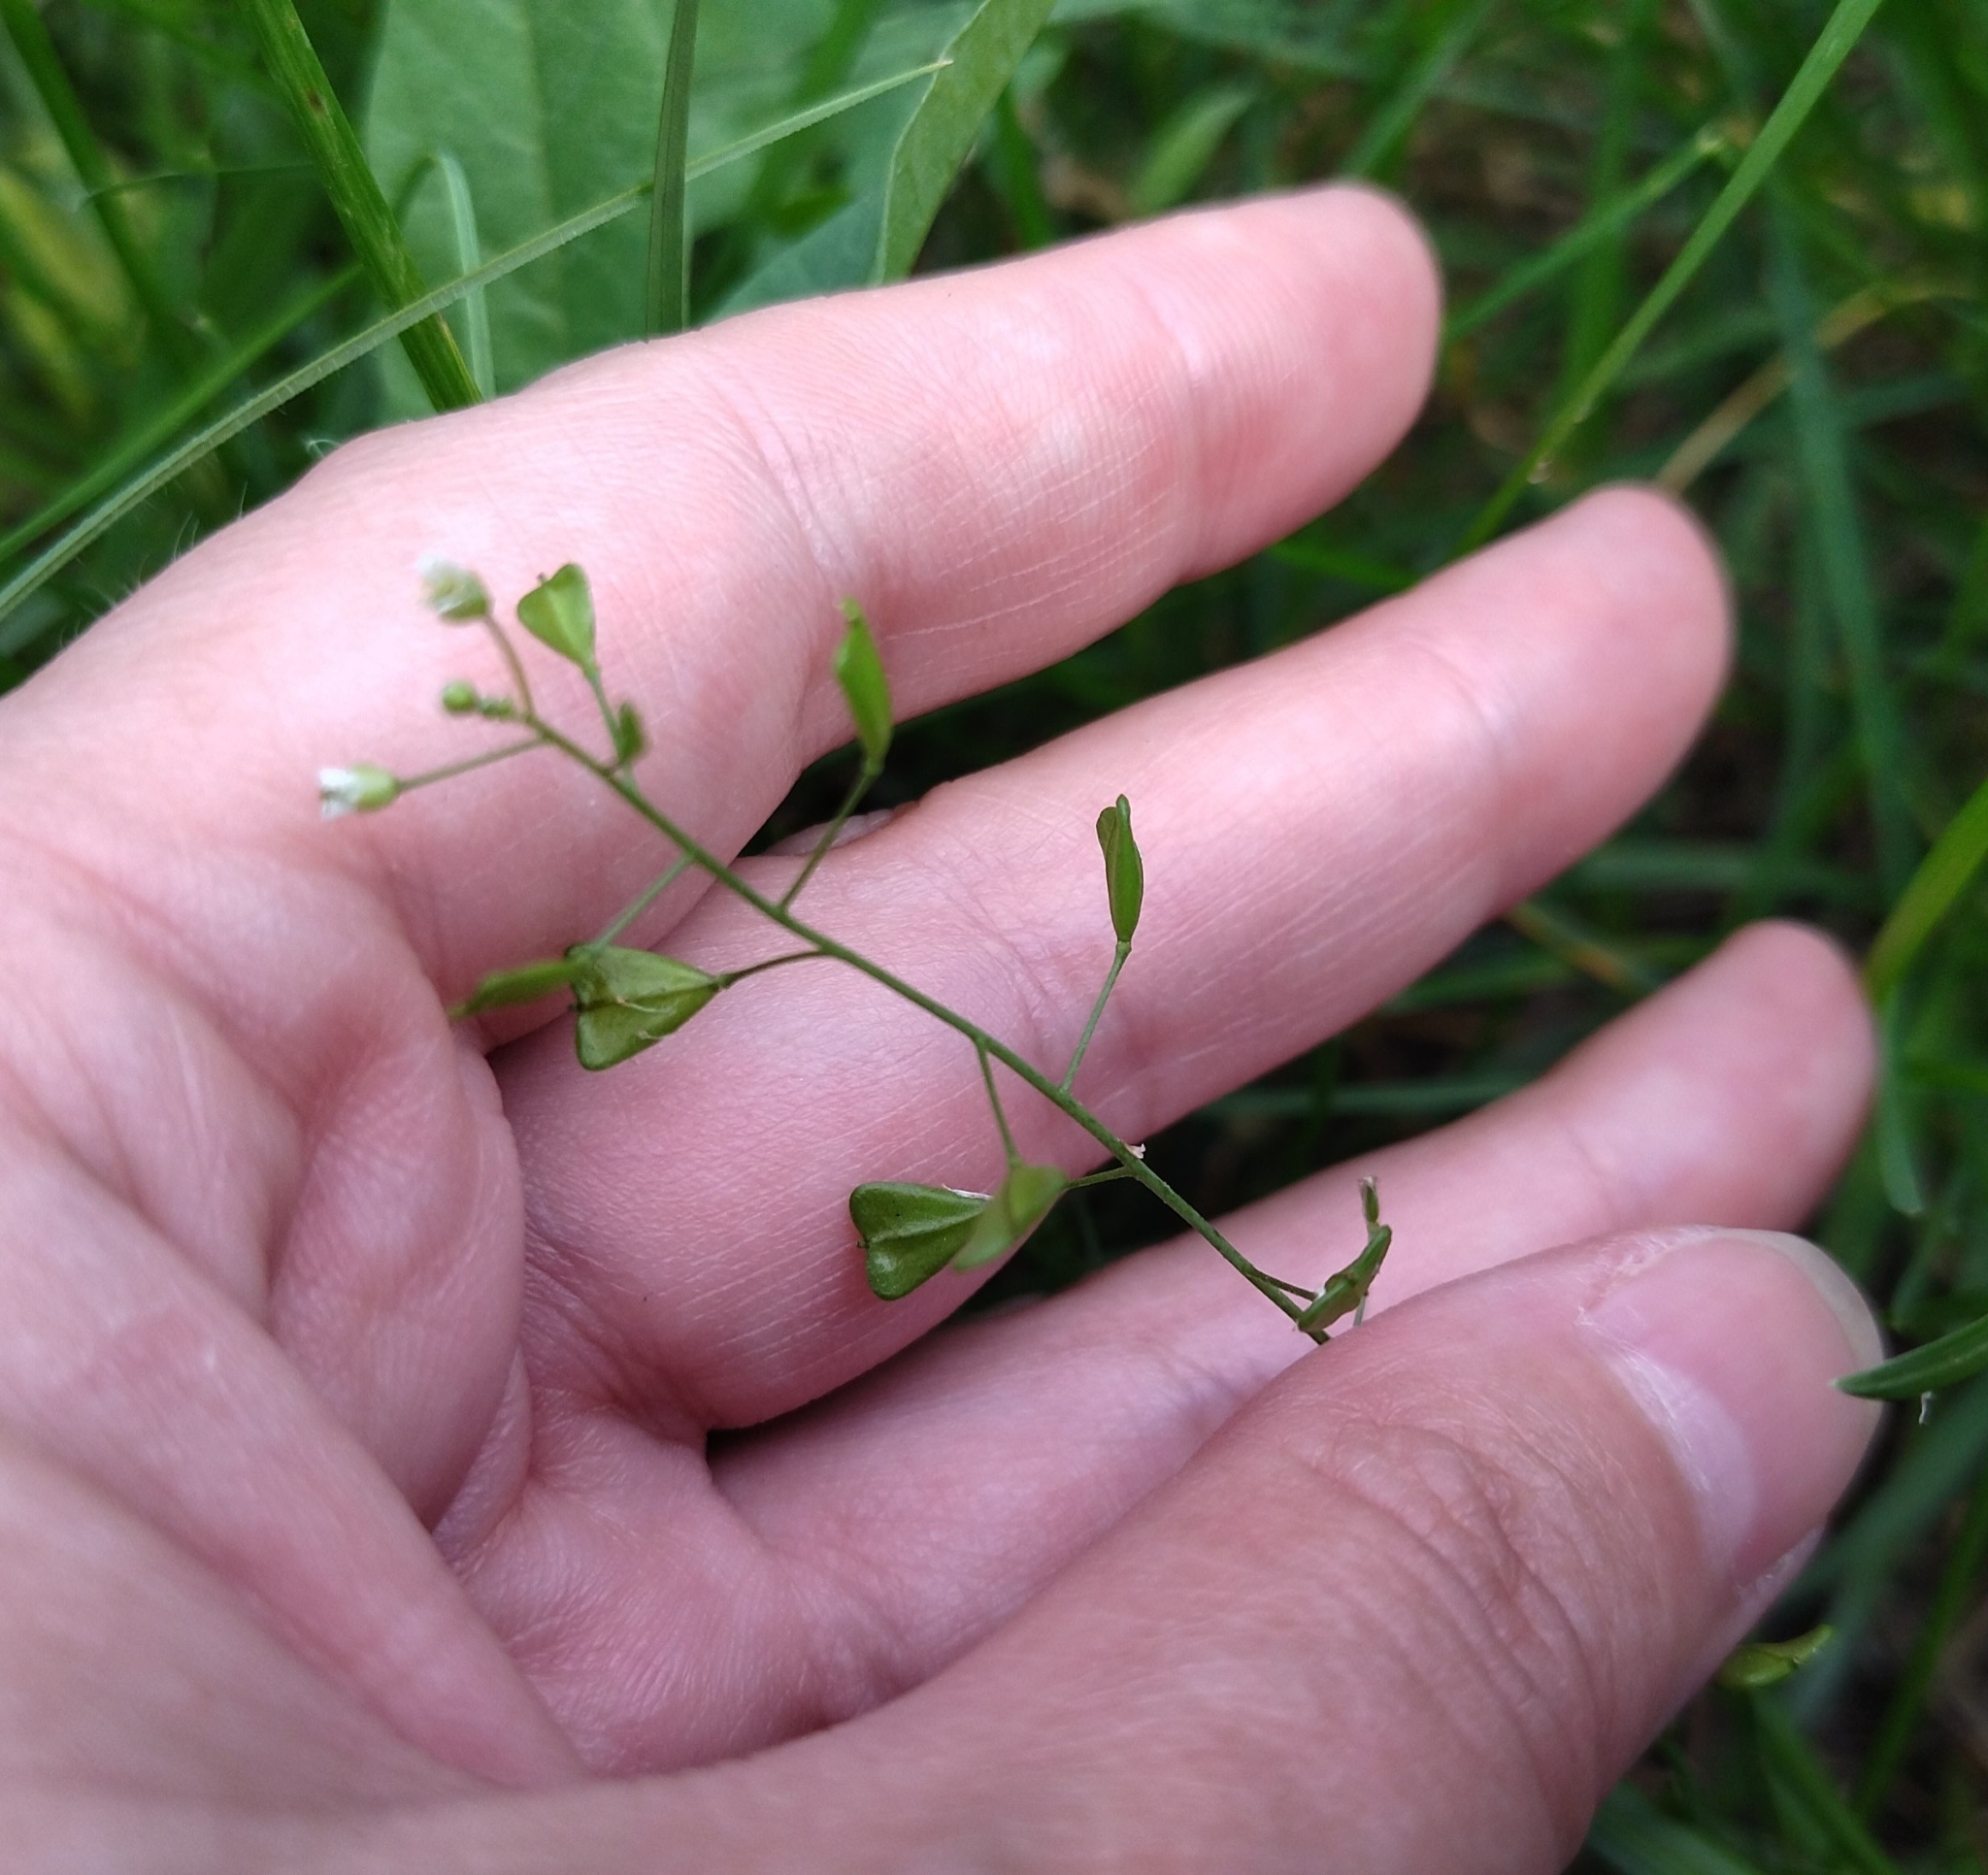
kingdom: Plantae
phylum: Tracheophyta
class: Magnoliopsida
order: Brassicales
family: Brassicaceae
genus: Capsella
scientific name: Capsella bursa-pastoris
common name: Shepherd's purse
